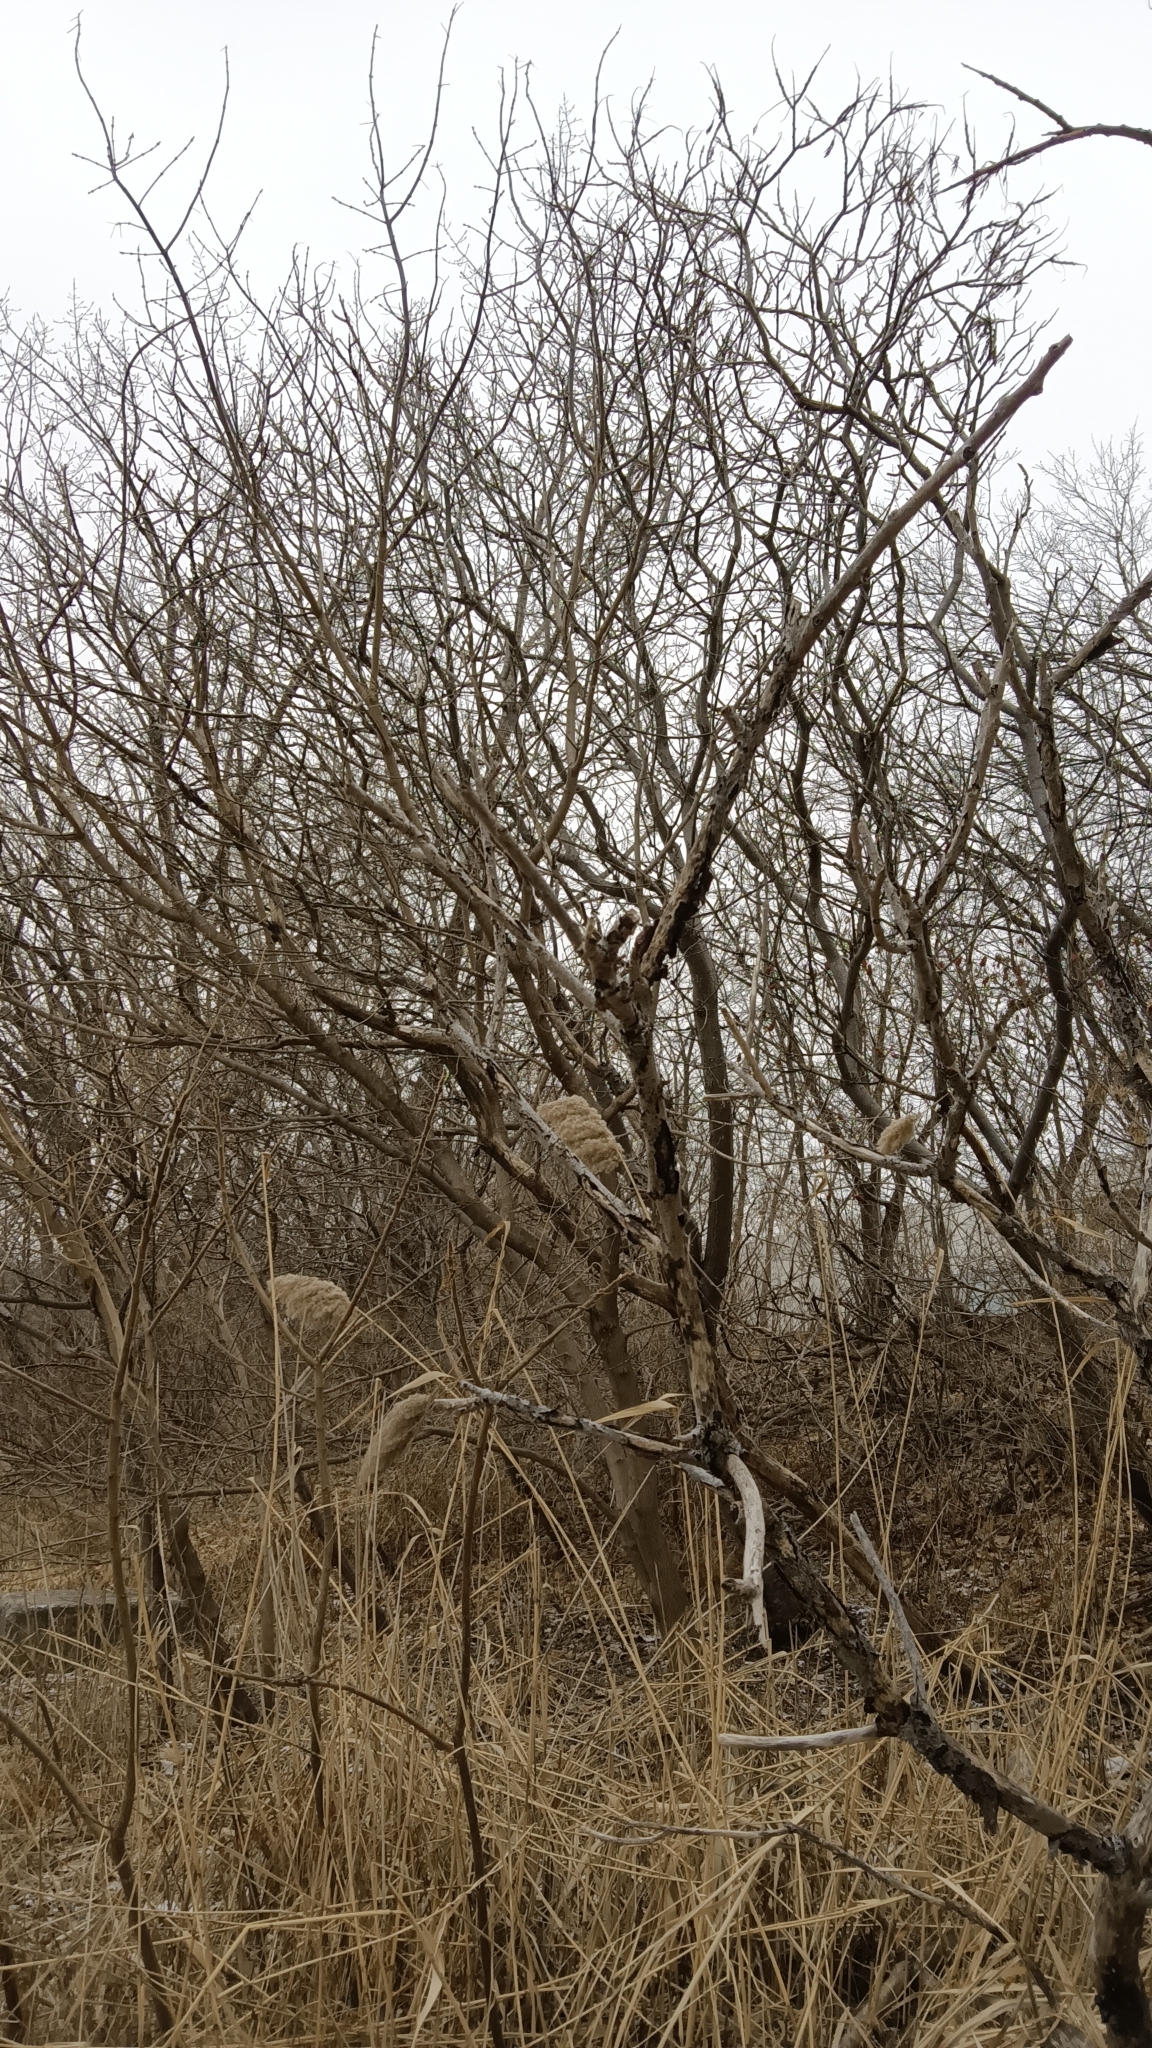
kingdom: Plantae
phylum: Tracheophyta
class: Magnoliopsida
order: Sapindales
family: Anacardiaceae
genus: Rhus
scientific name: Rhus typhina
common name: Staghorn sumac
